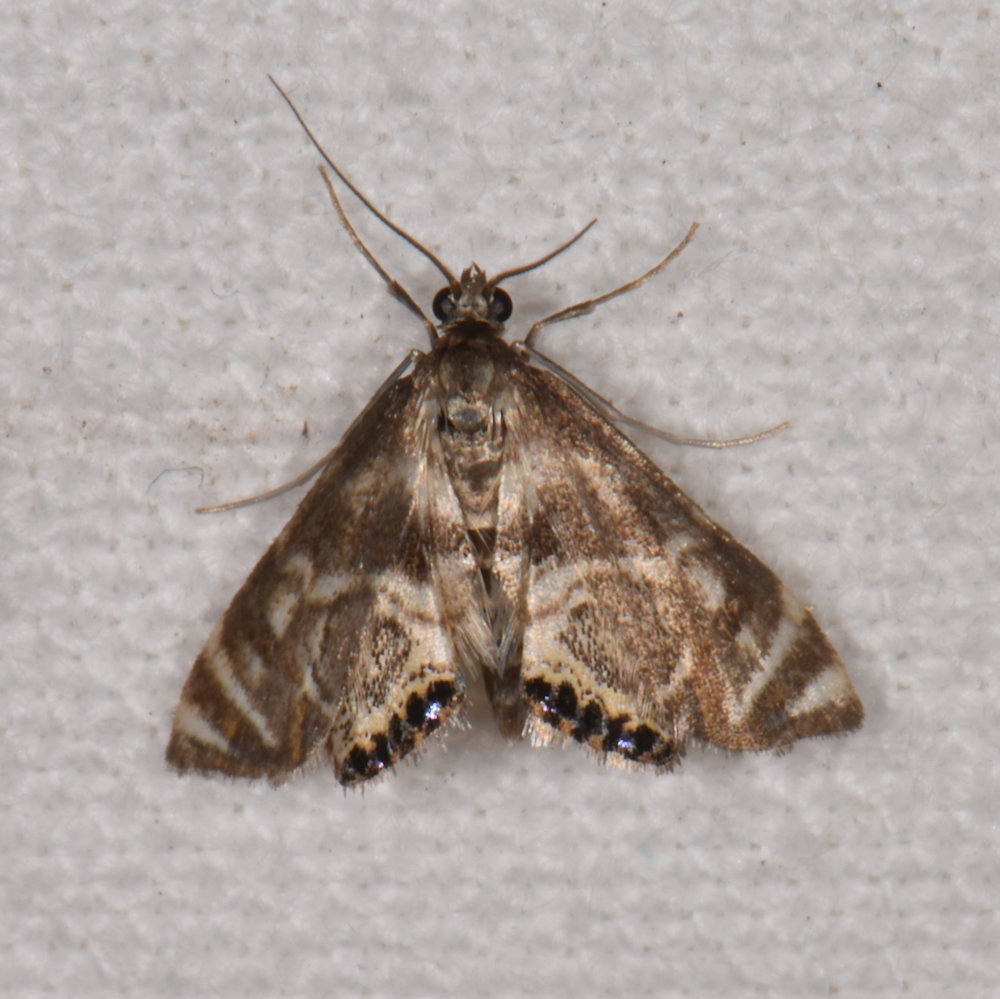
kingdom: Animalia
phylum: Arthropoda
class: Insecta
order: Lepidoptera
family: Crambidae
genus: Petrophila
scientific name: Petrophila canadensis
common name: Canadian petrophila
